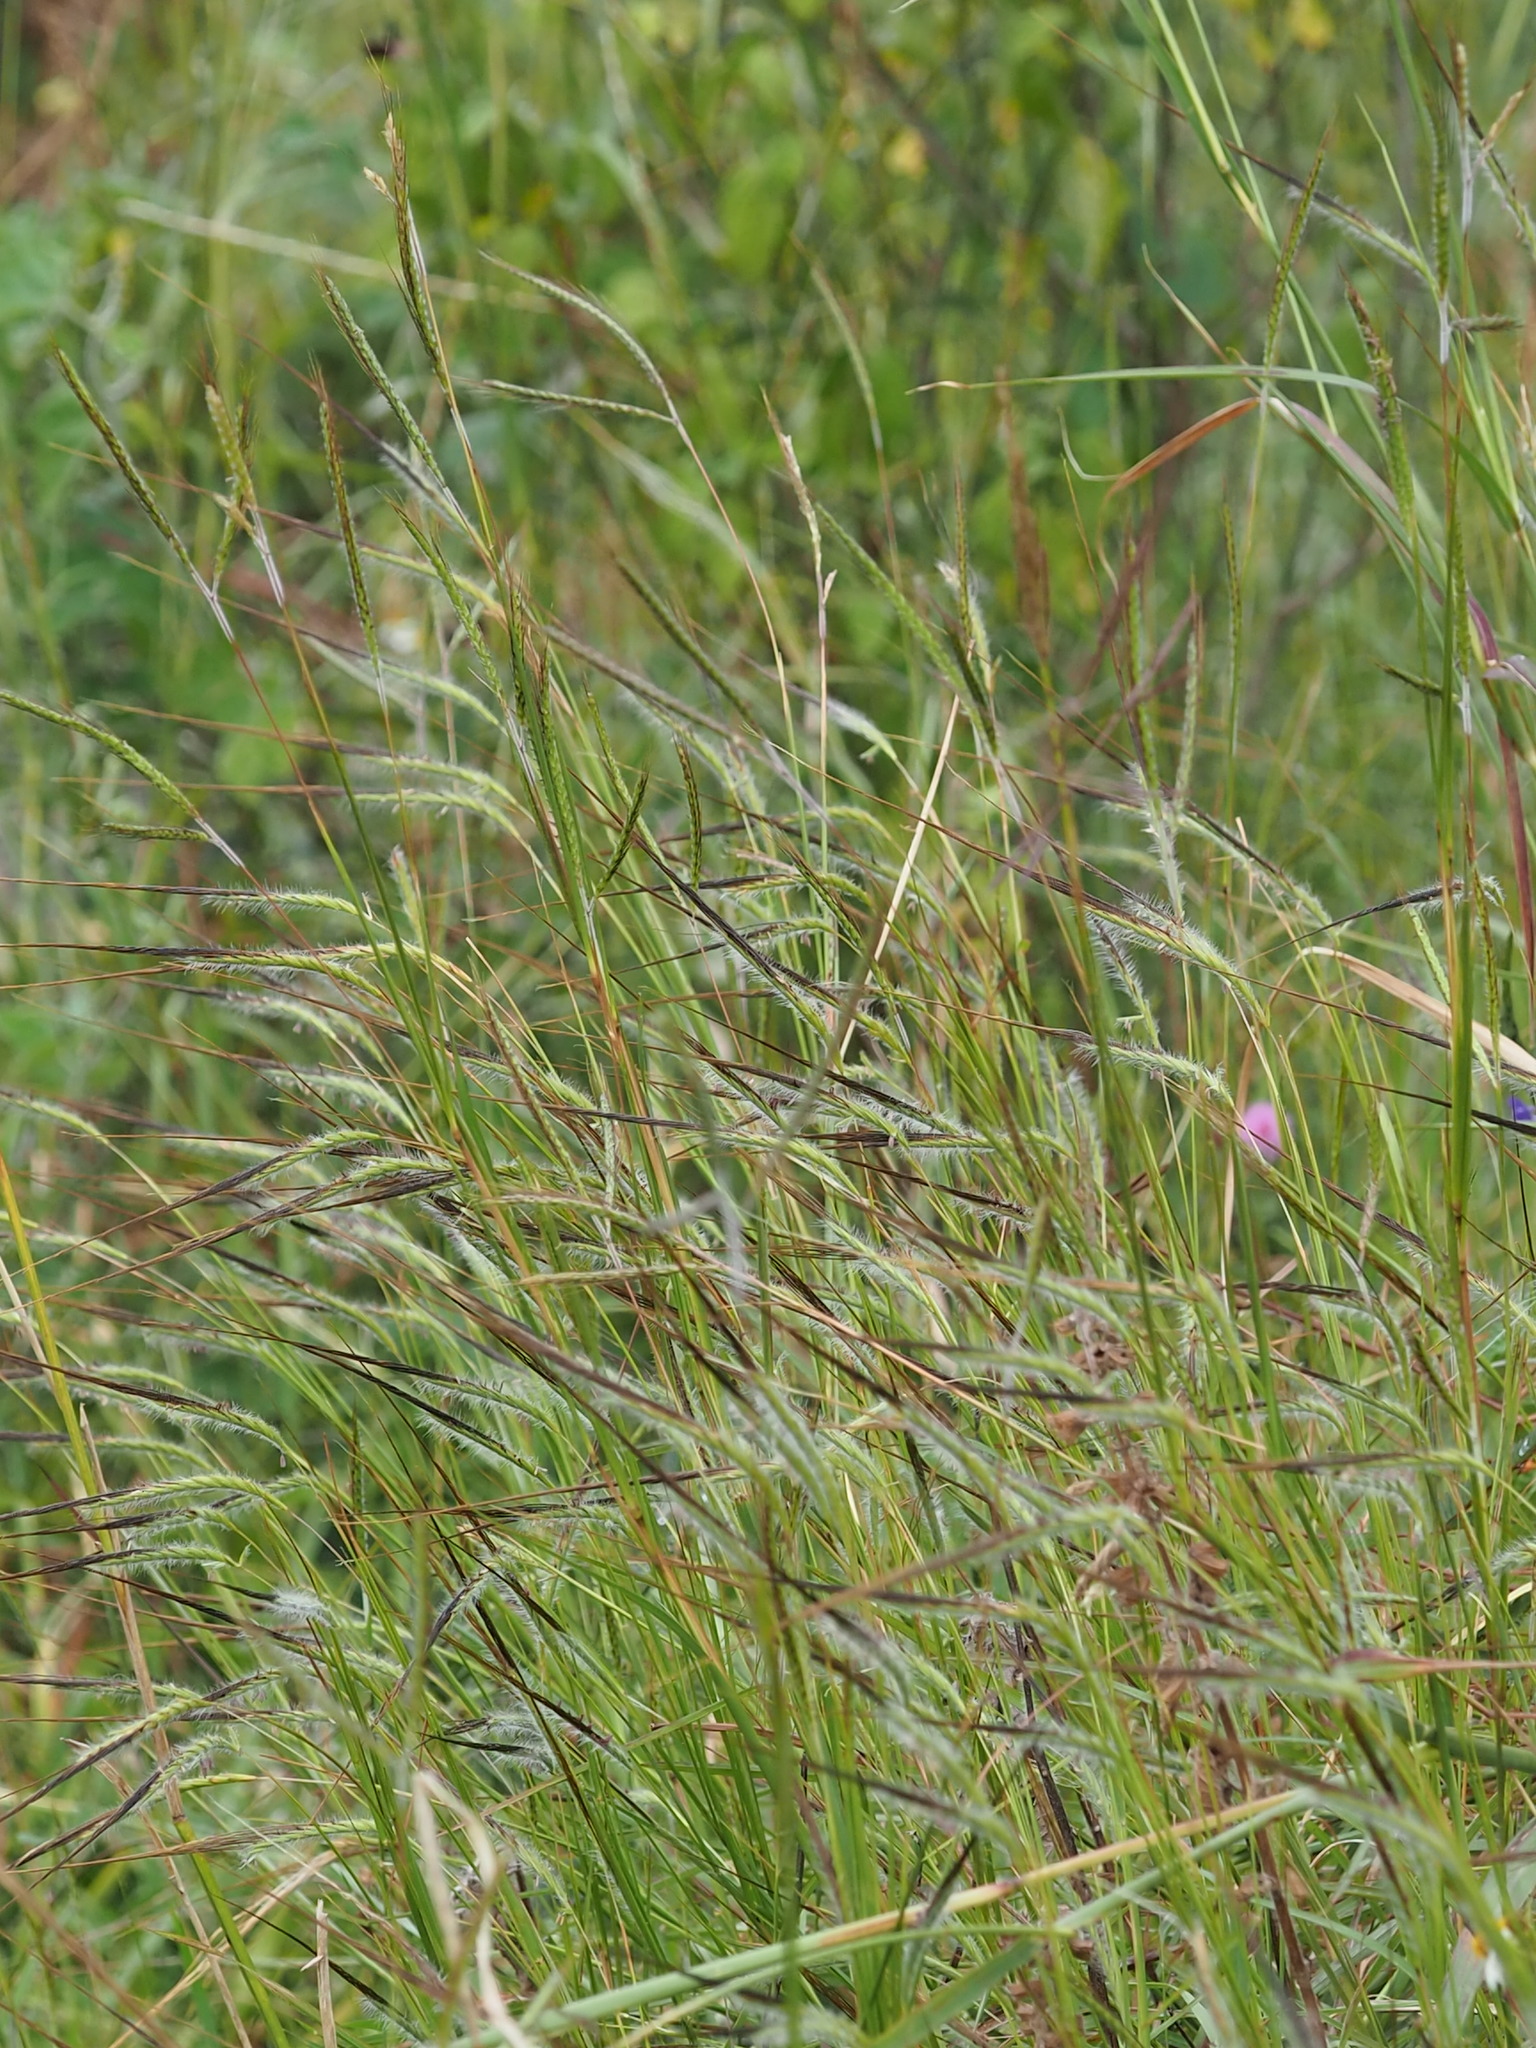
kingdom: Plantae
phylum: Tracheophyta
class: Liliopsida
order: Poales
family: Poaceae
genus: Heteropogon
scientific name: Heteropogon contortus
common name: Tanglehead
